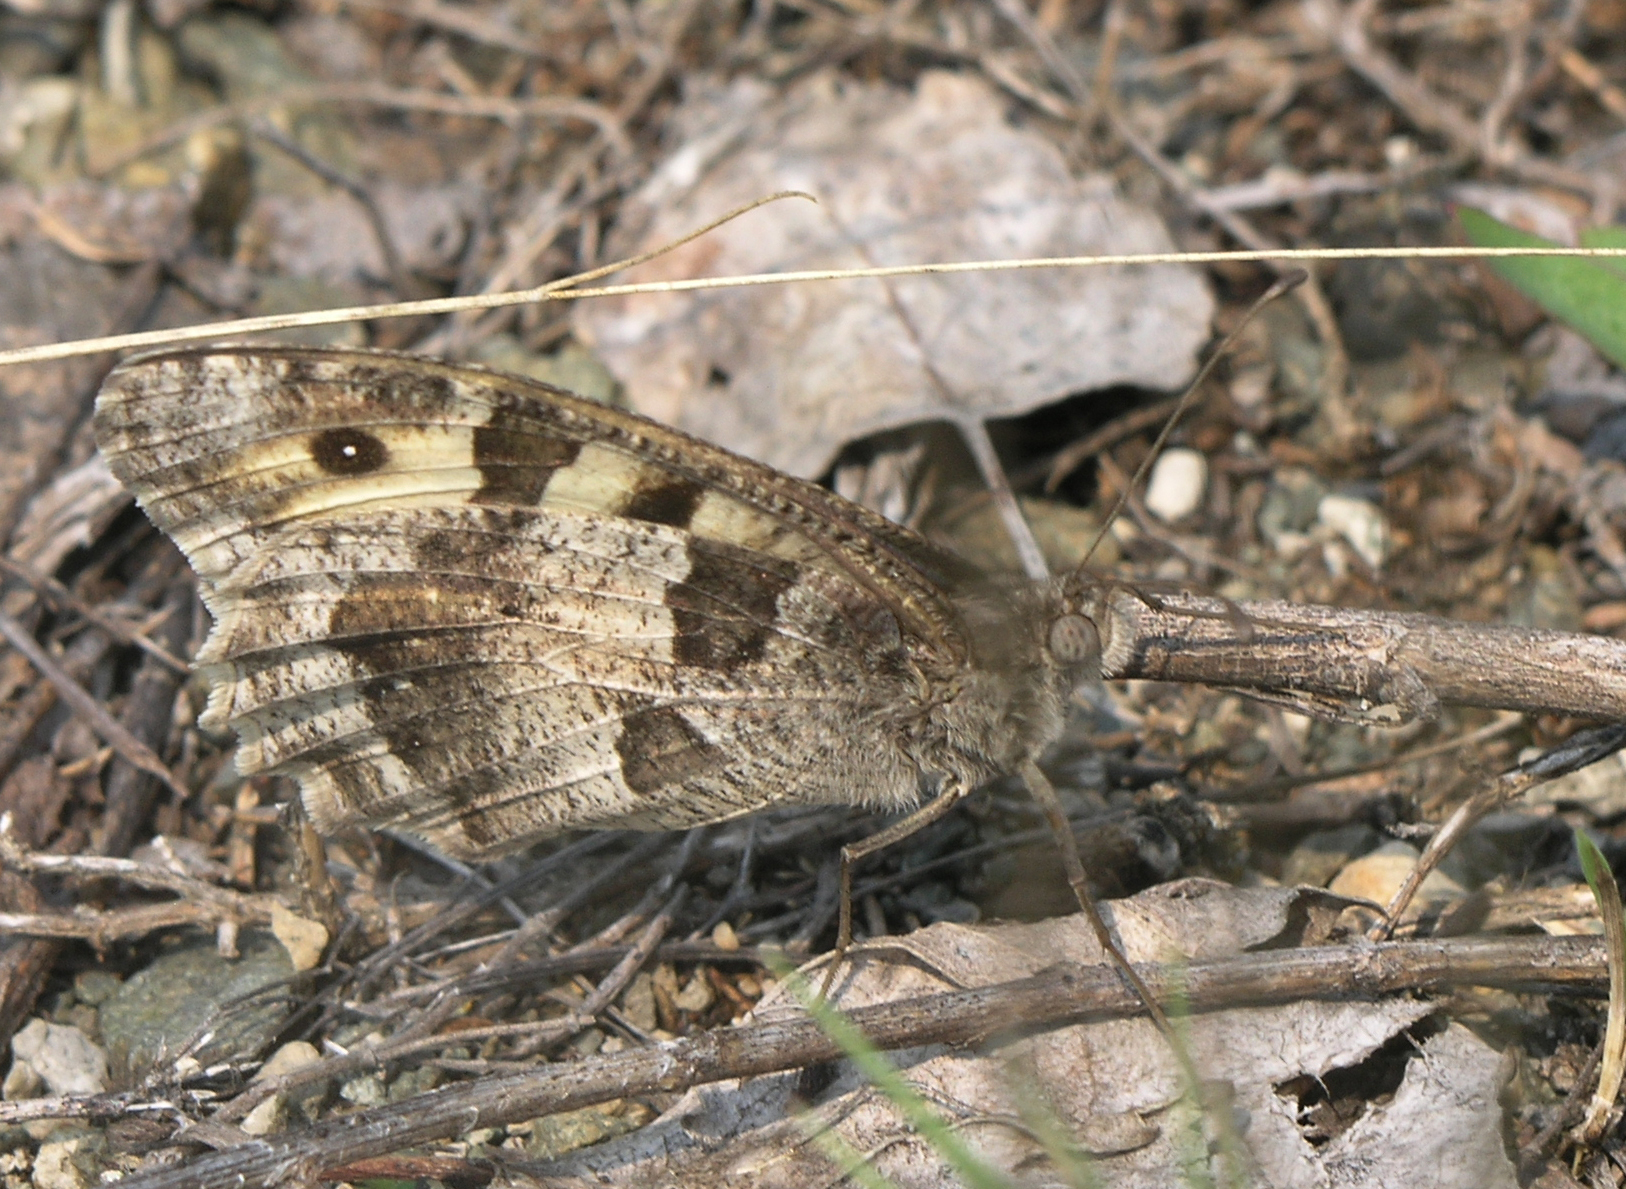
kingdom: Animalia
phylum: Arthropoda
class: Insecta
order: Lepidoptera
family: Nymphalidae
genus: Satyrus
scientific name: Satyrus briseis
